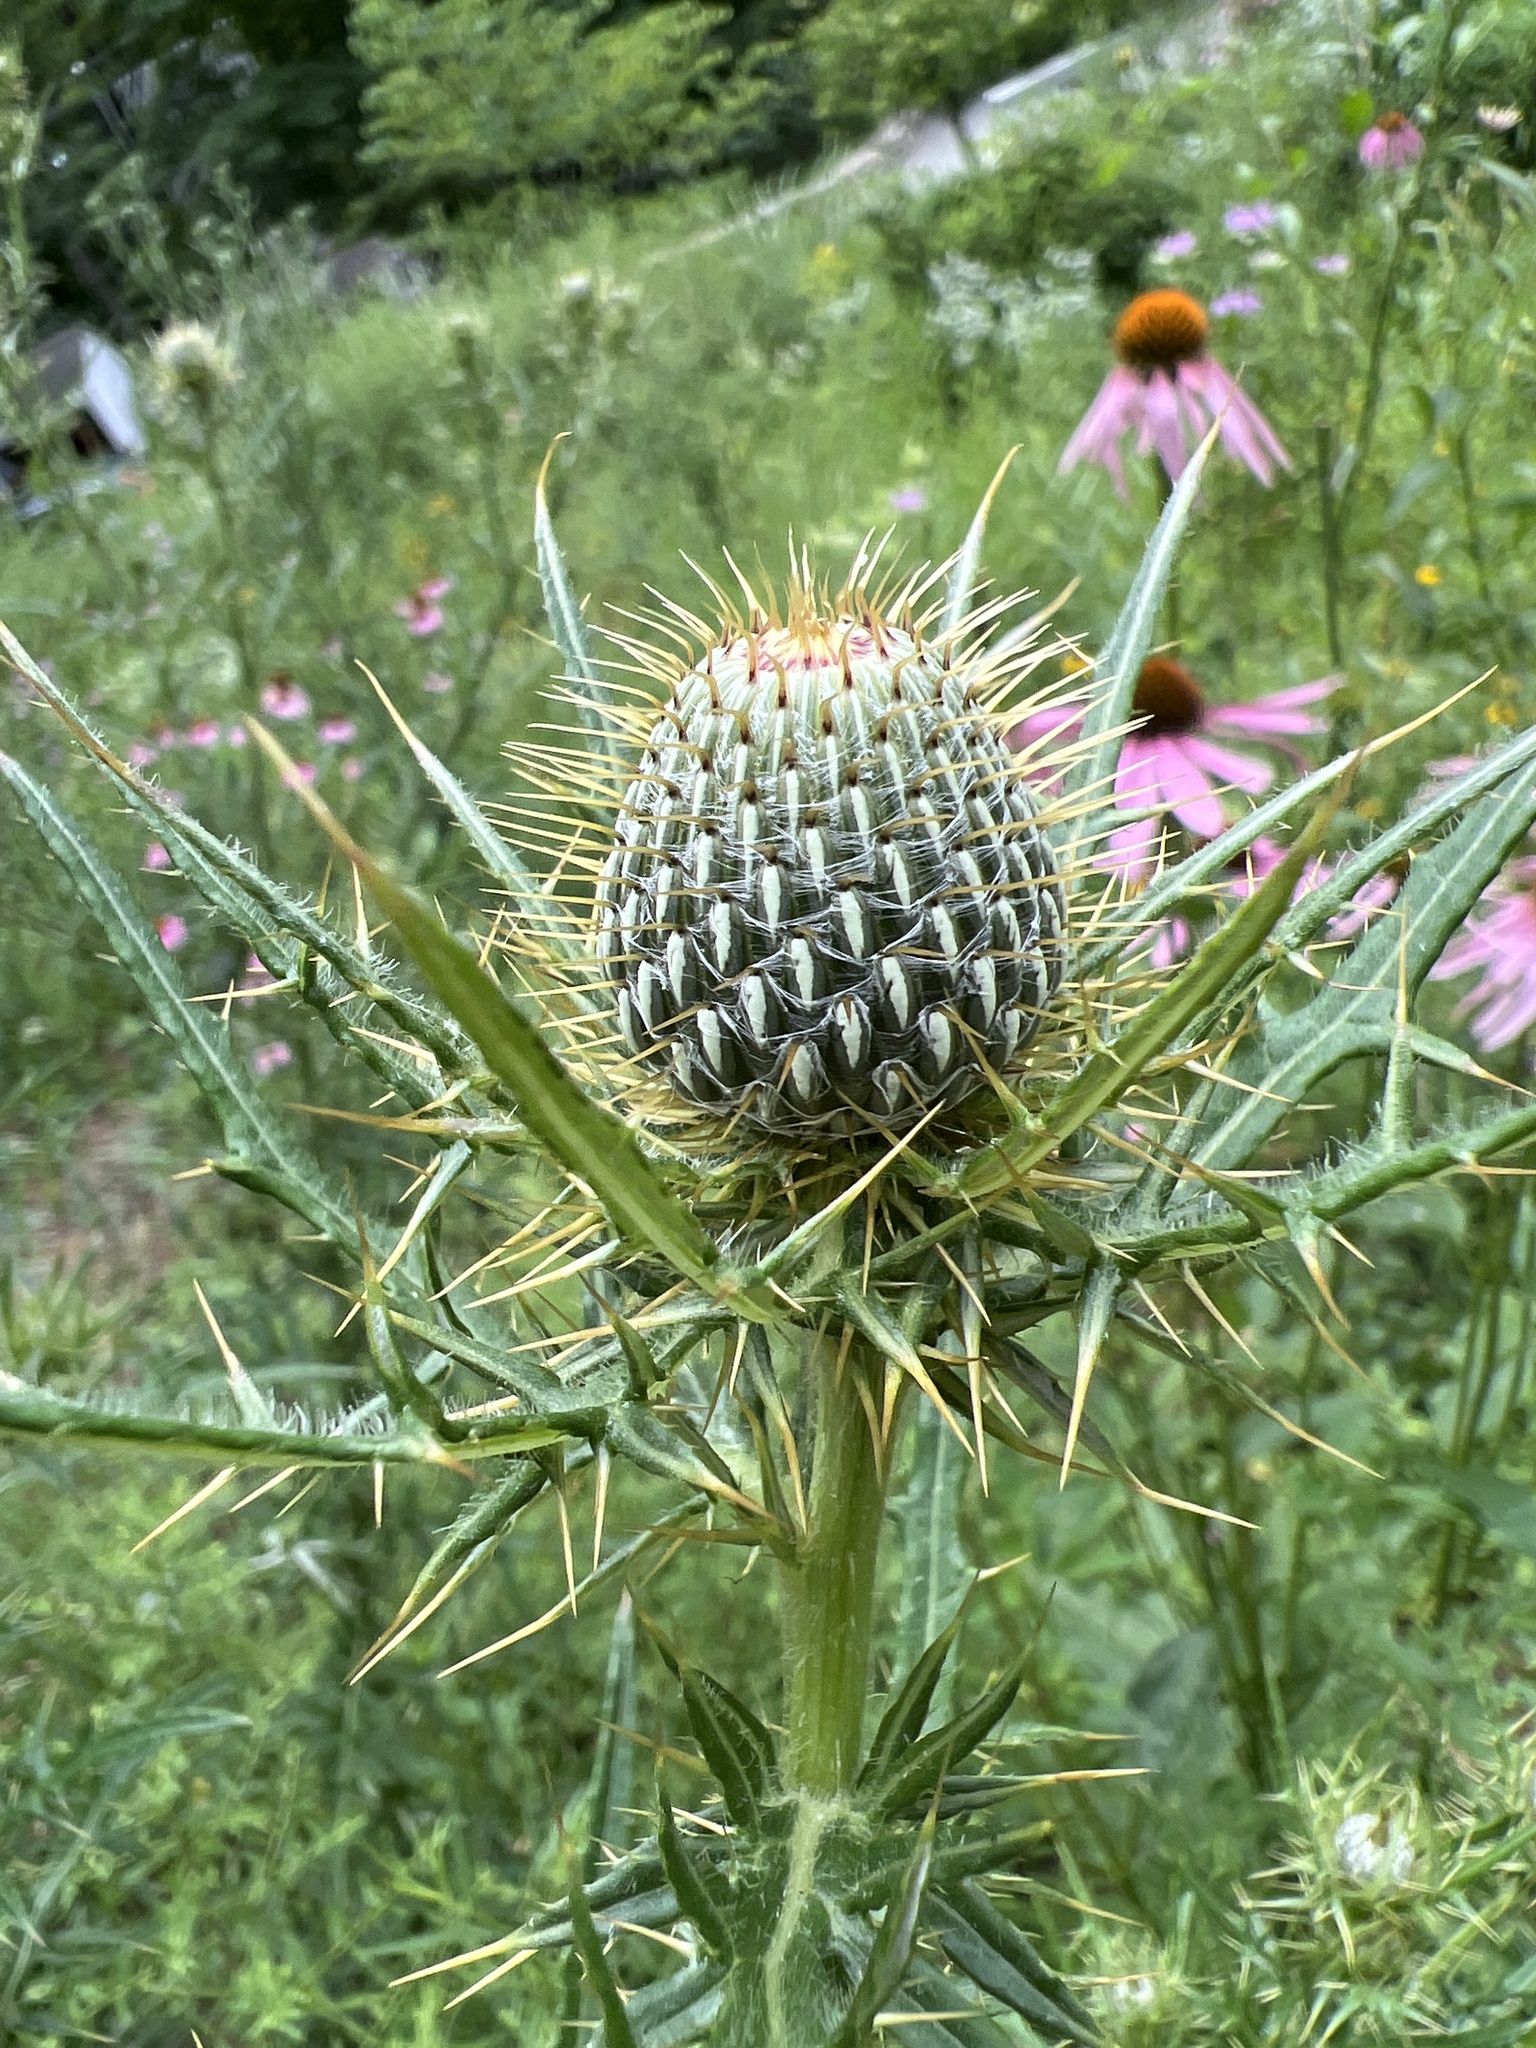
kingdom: Plantae
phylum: Tracheophyta
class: Magnoliopsida
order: Asterales
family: Asteraceae
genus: Cirsium
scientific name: Cirsium discolor
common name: Field thistle
